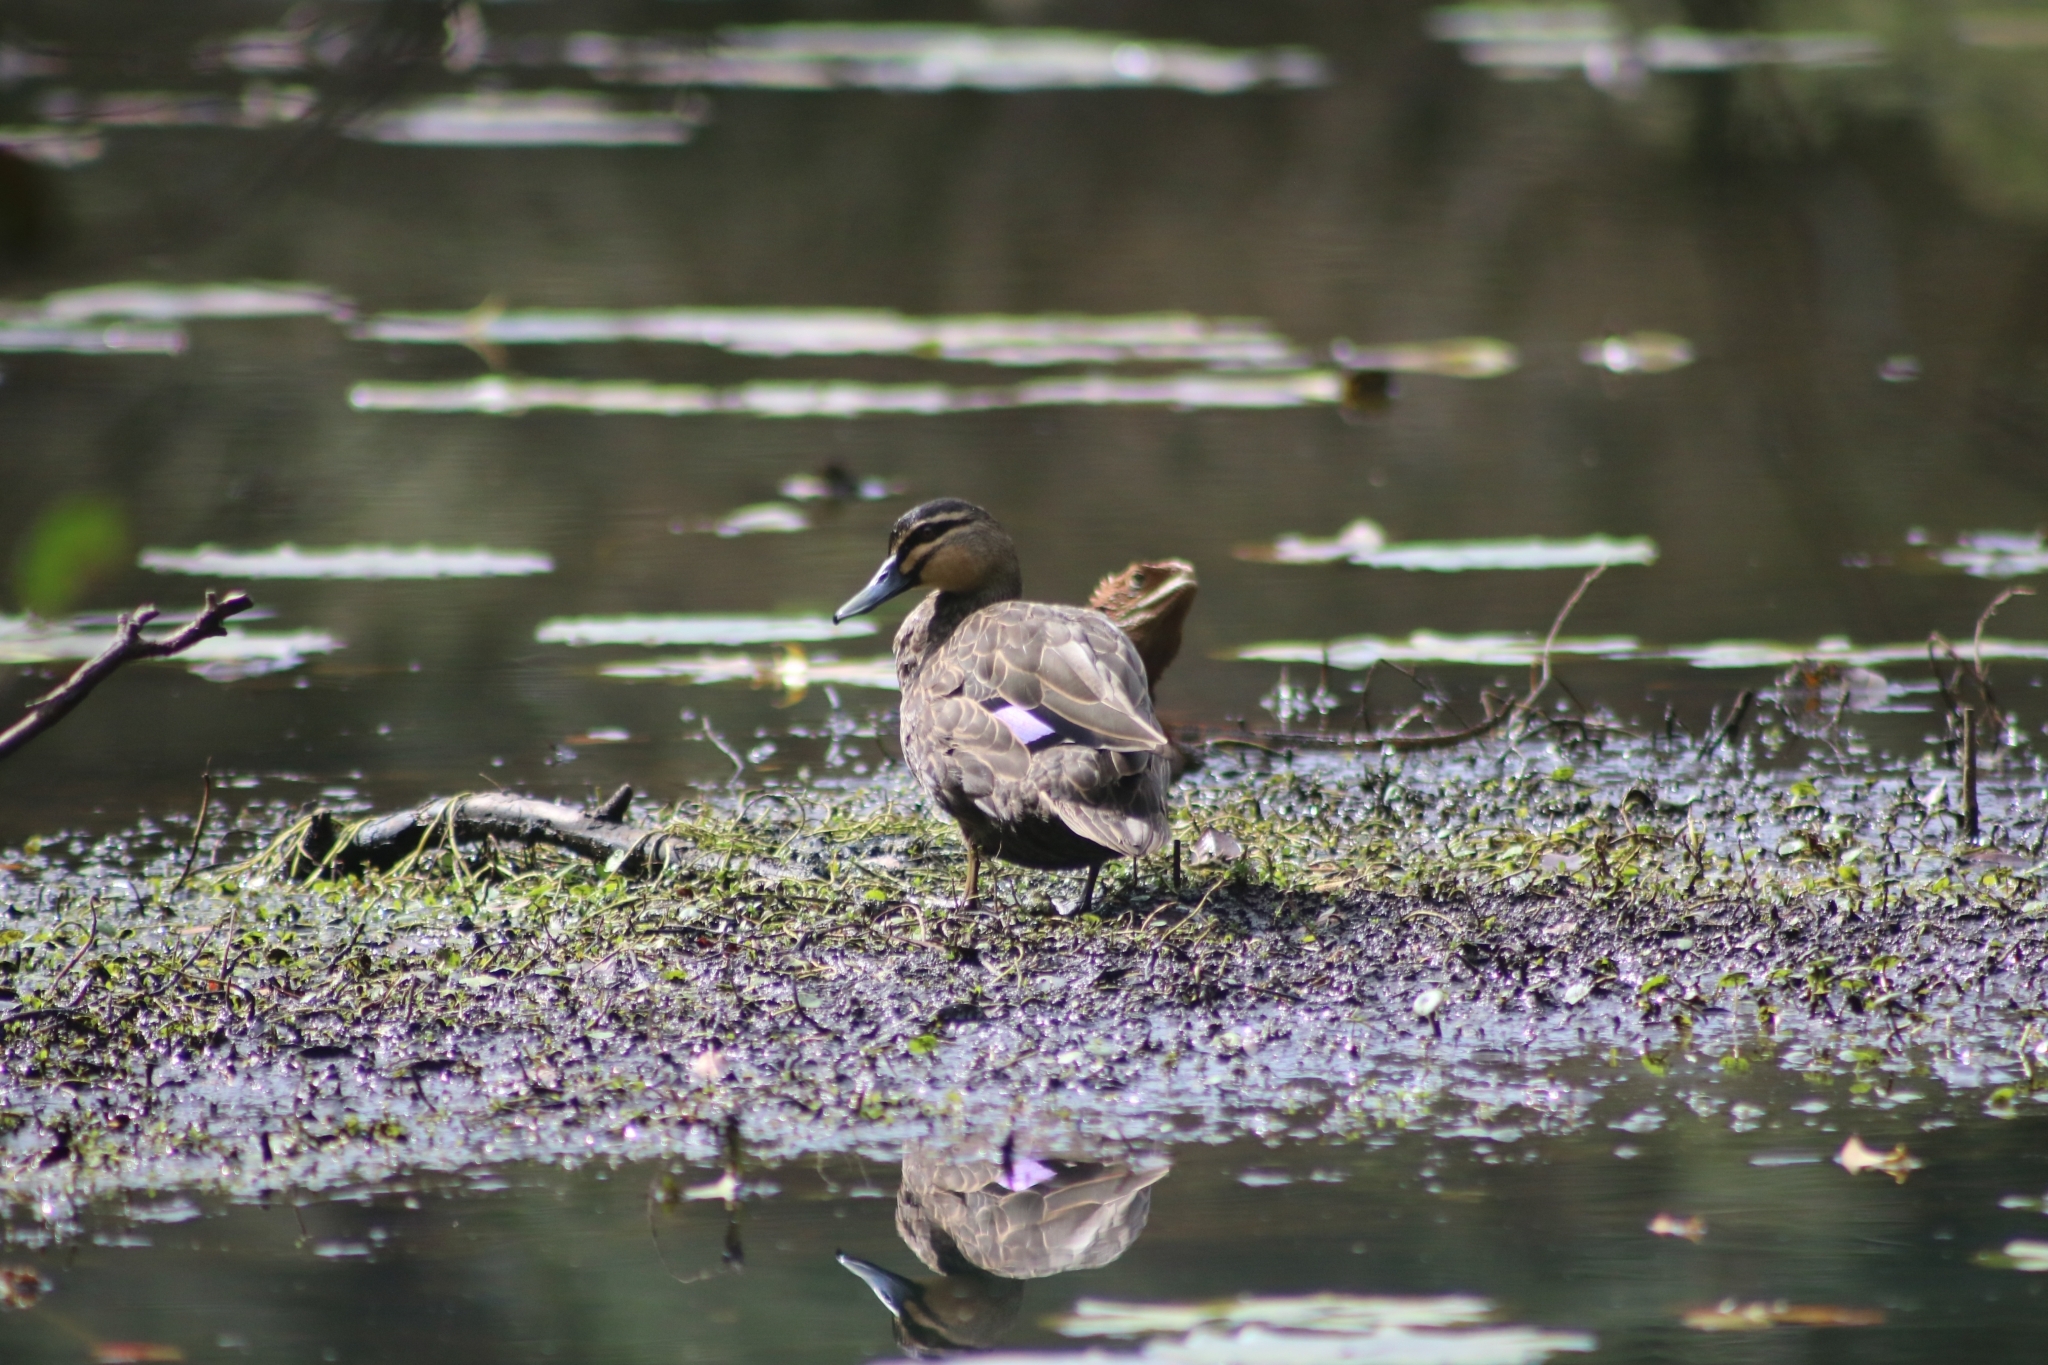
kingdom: Animalia
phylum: Chordata
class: Aves
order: Anseriformes
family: Anatidae
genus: Anas
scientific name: Anas superciliosa
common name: Pacific black duck
